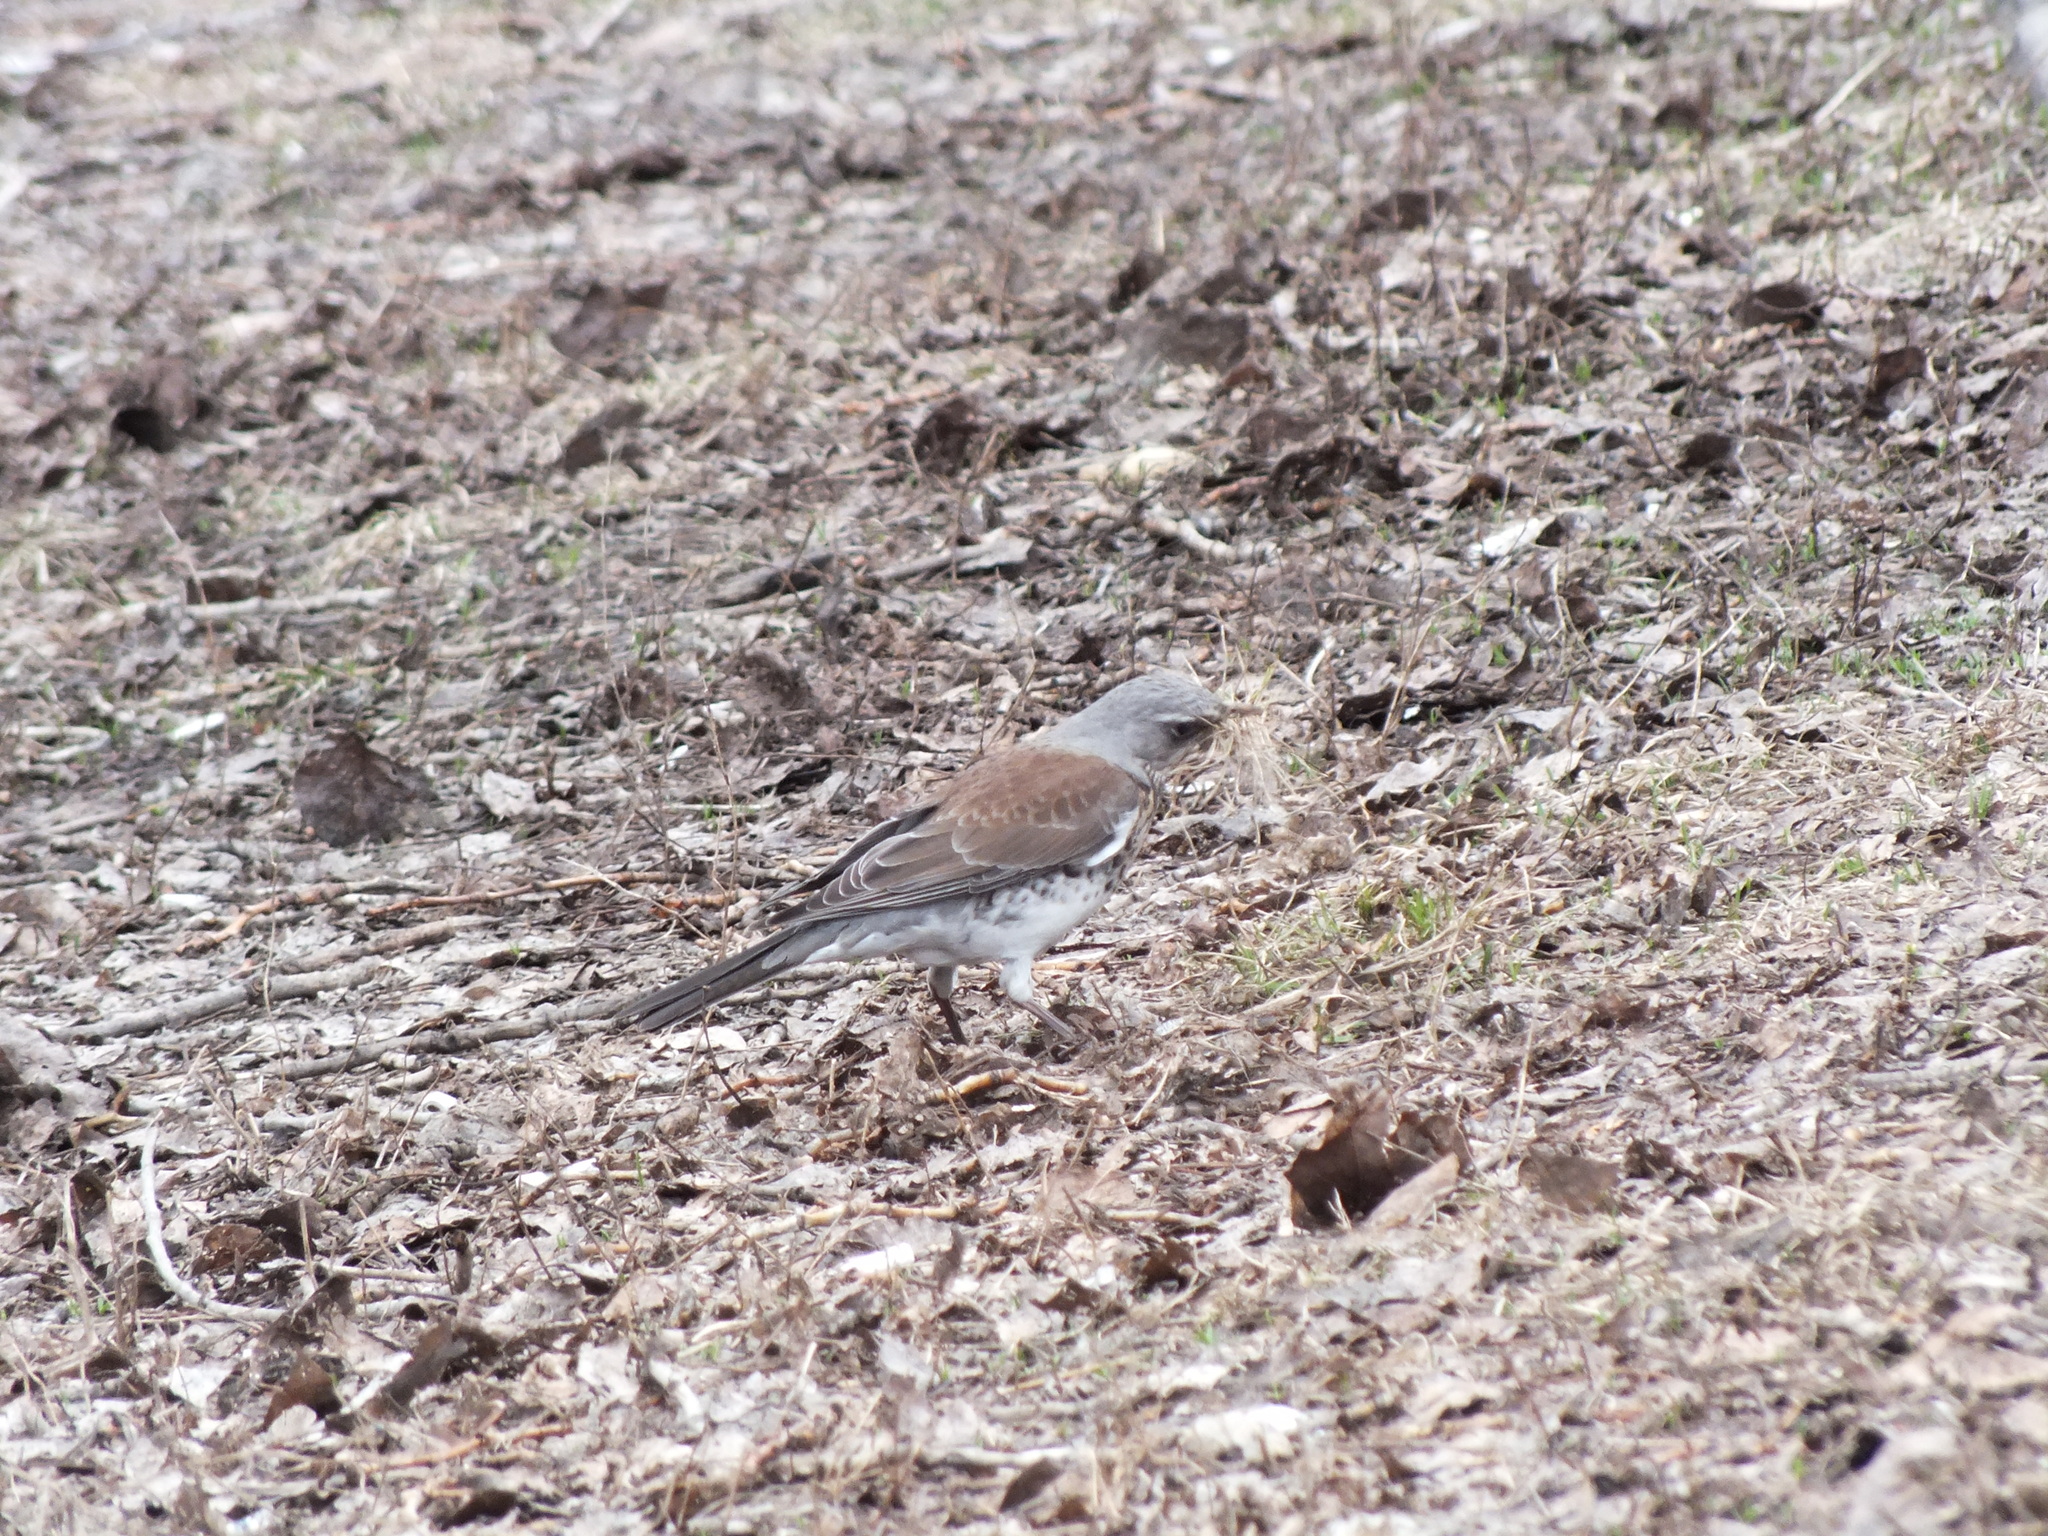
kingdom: Animalia
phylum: Chordata
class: Aves
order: Passeriformes
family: Turdidae
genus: Turdus
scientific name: Turdus pilaris
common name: Fieldfare
